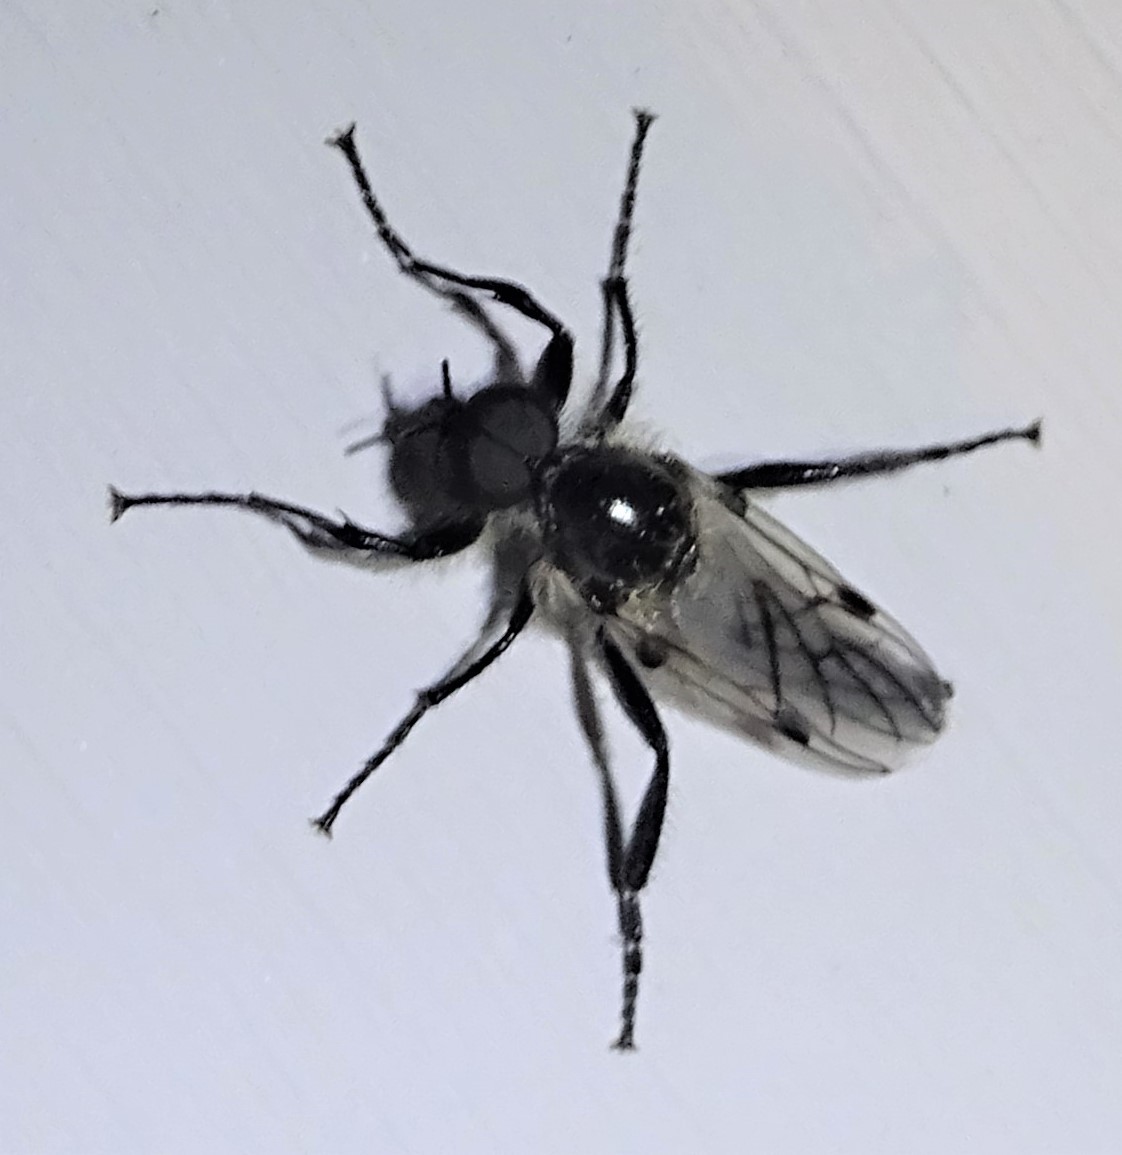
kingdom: Animalia
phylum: Arthropoda
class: Insecta
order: Diptera
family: Bibionidae
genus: Bibio
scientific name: Bibio albipennis
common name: White-winged march fly
